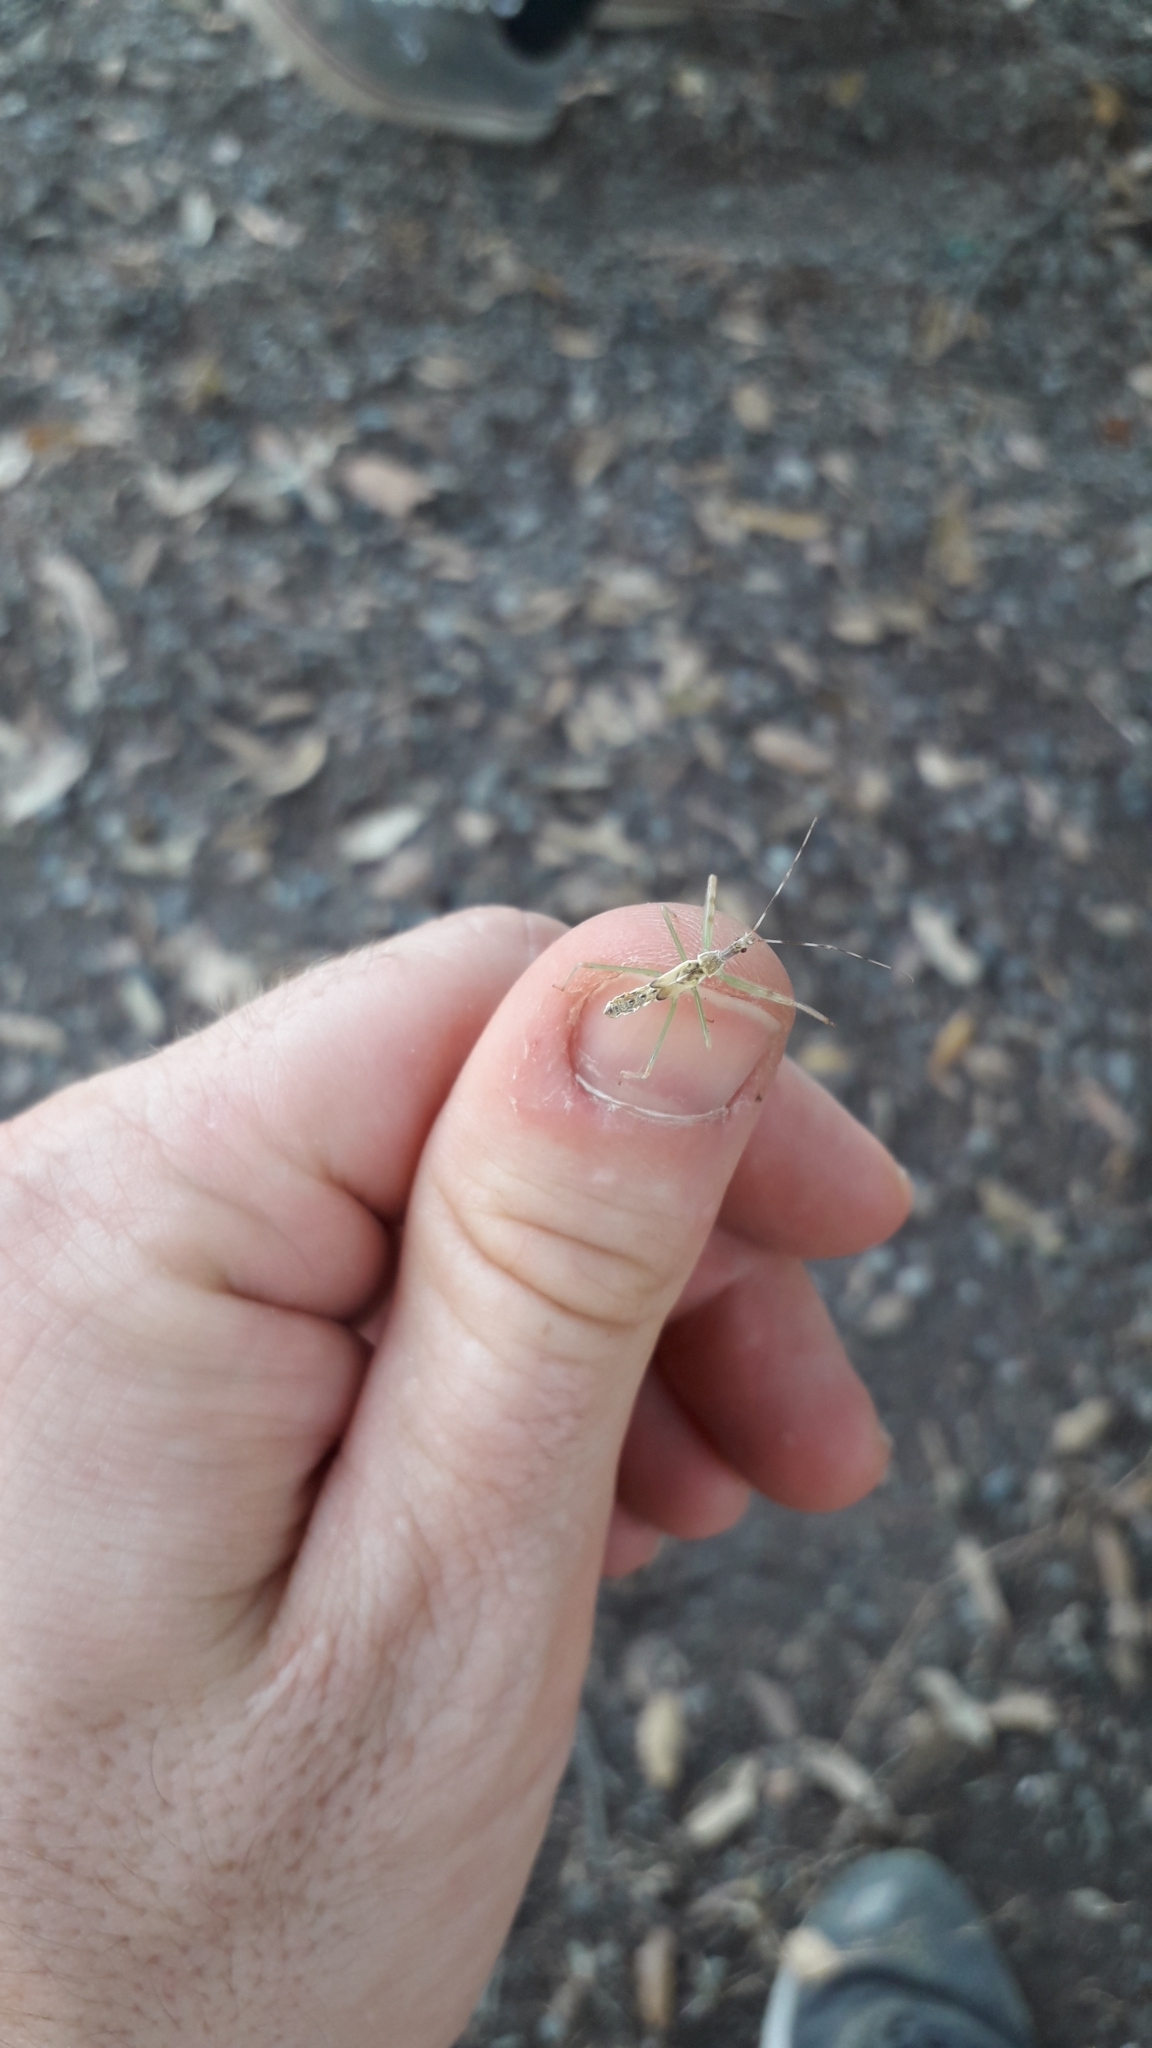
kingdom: Animalia
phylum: Arthropoda
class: Insecta
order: Hemiptera
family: Reduviidae
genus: Nagusta
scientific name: Nagusta goedelii
